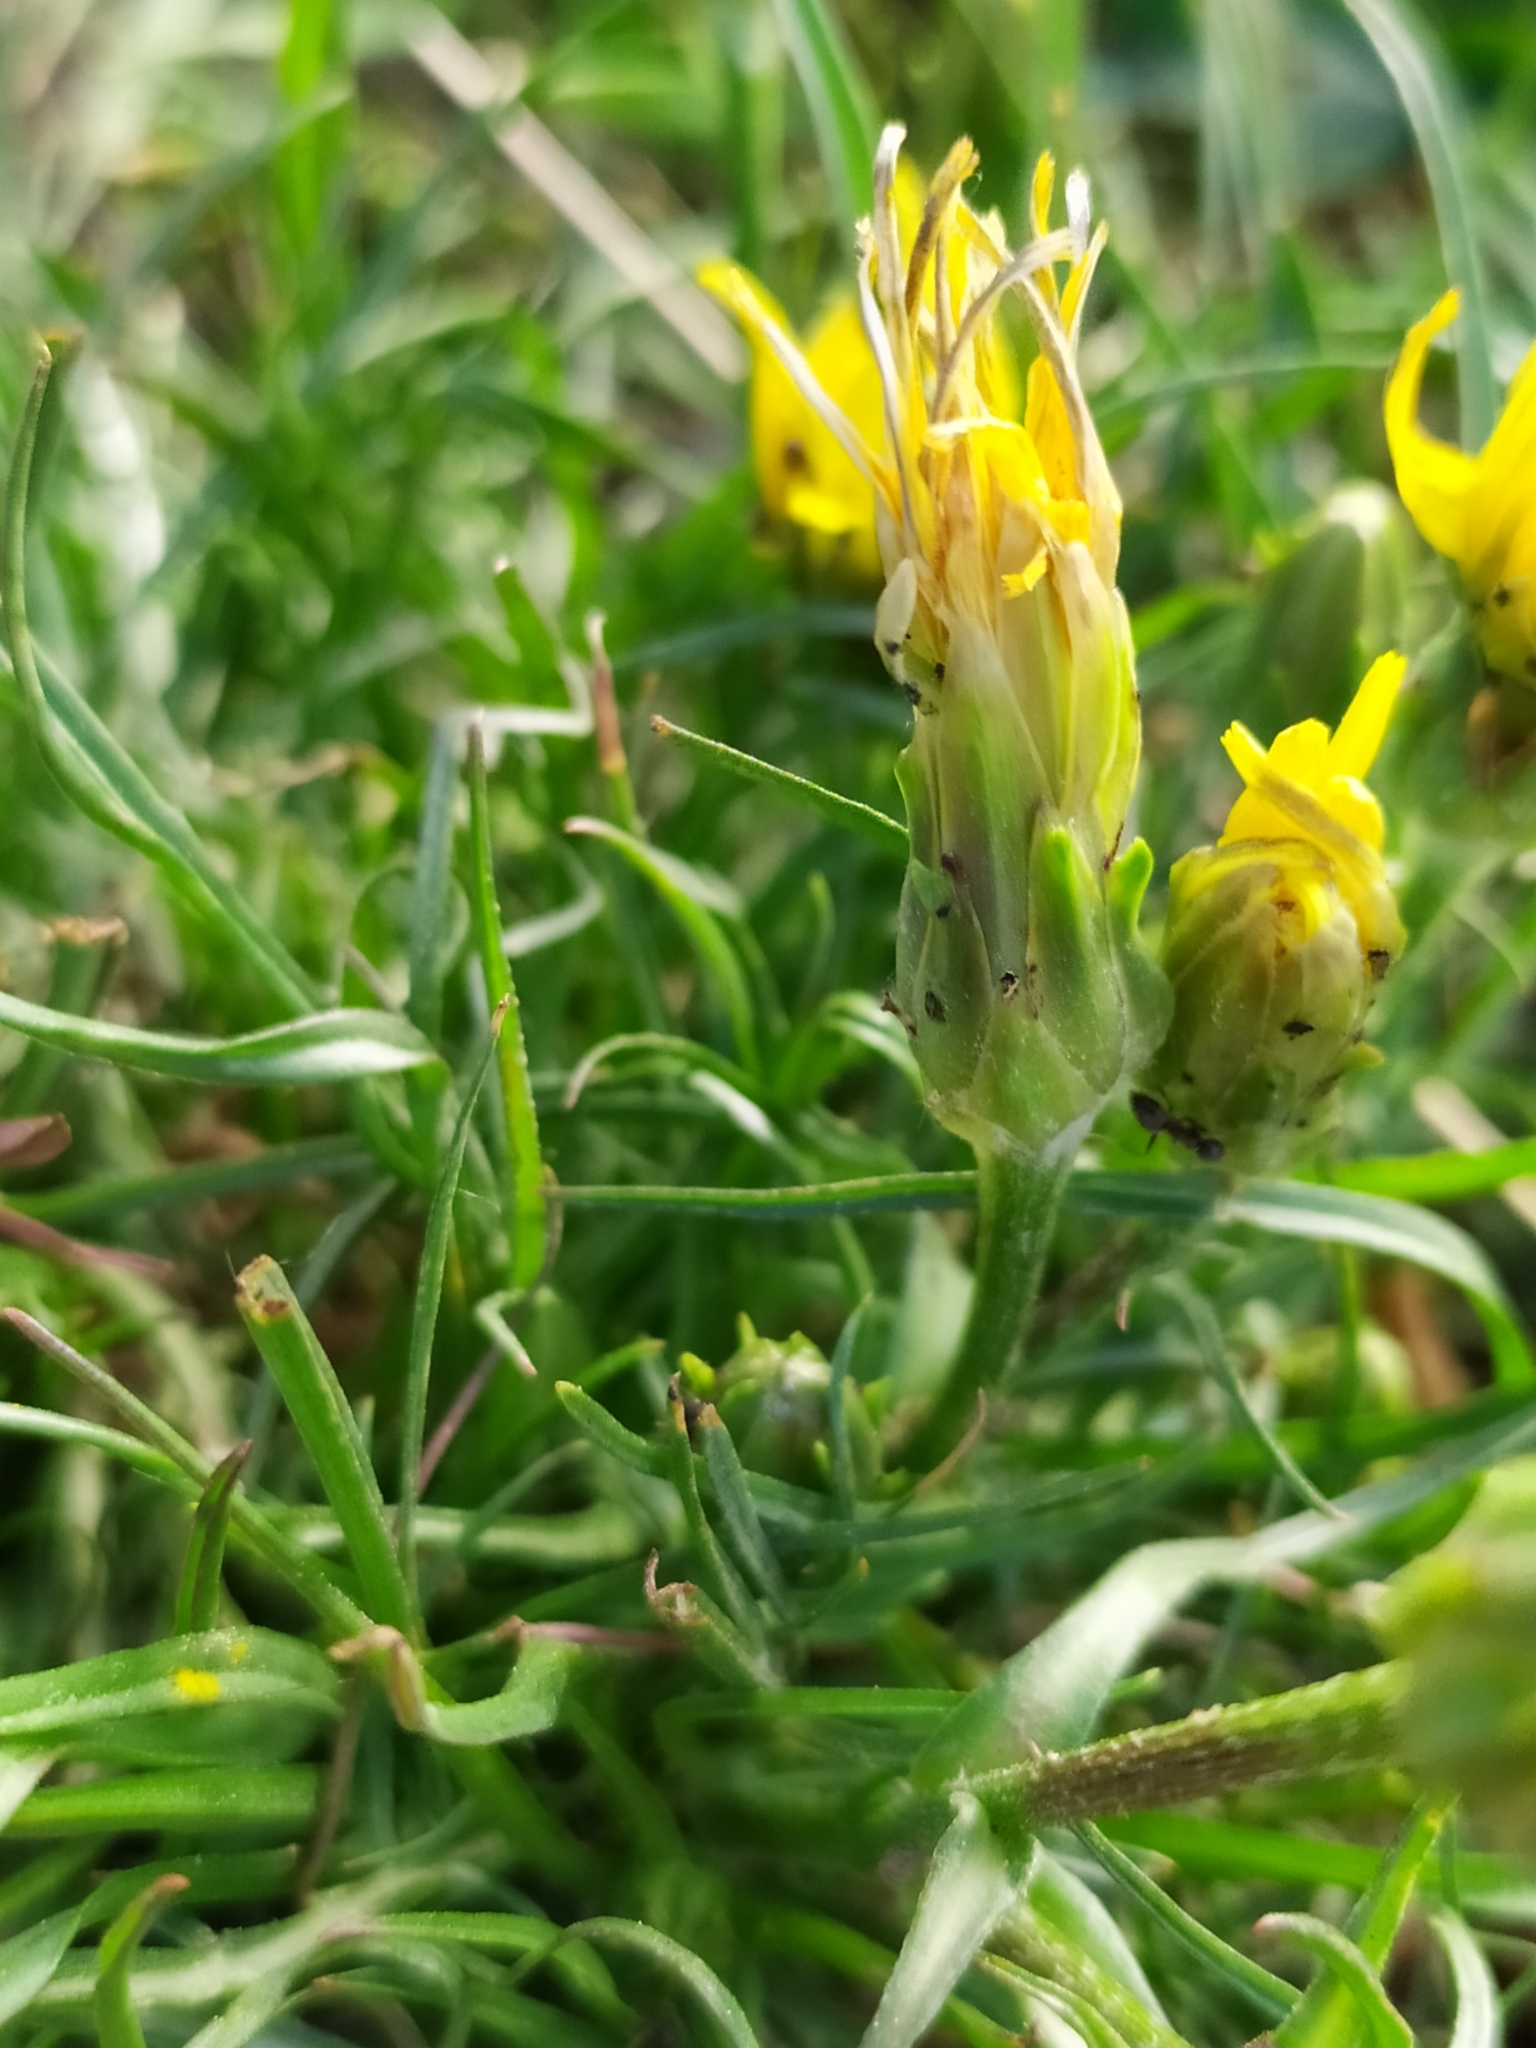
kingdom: Plantae
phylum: Tracheophyta
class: Magnoliopsida
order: Asterales
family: Asteraceae
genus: Scorzonera
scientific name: Scorzonera cana
